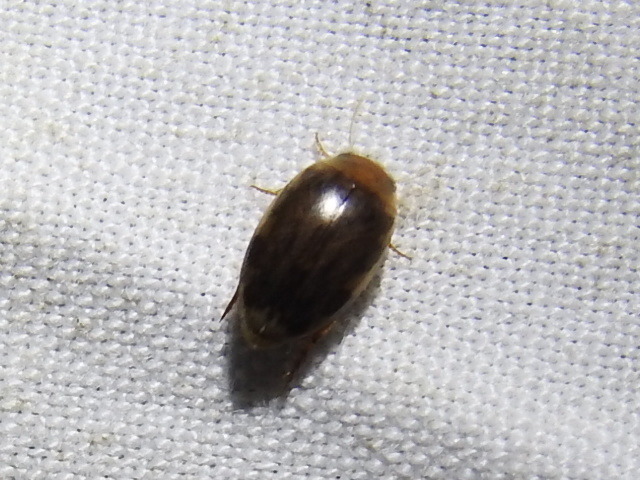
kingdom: Animalia
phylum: Arthropoda
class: Insecta
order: Coleoptera
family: Dytiscidae
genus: Laccophilus
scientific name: Laccophilus proximus
